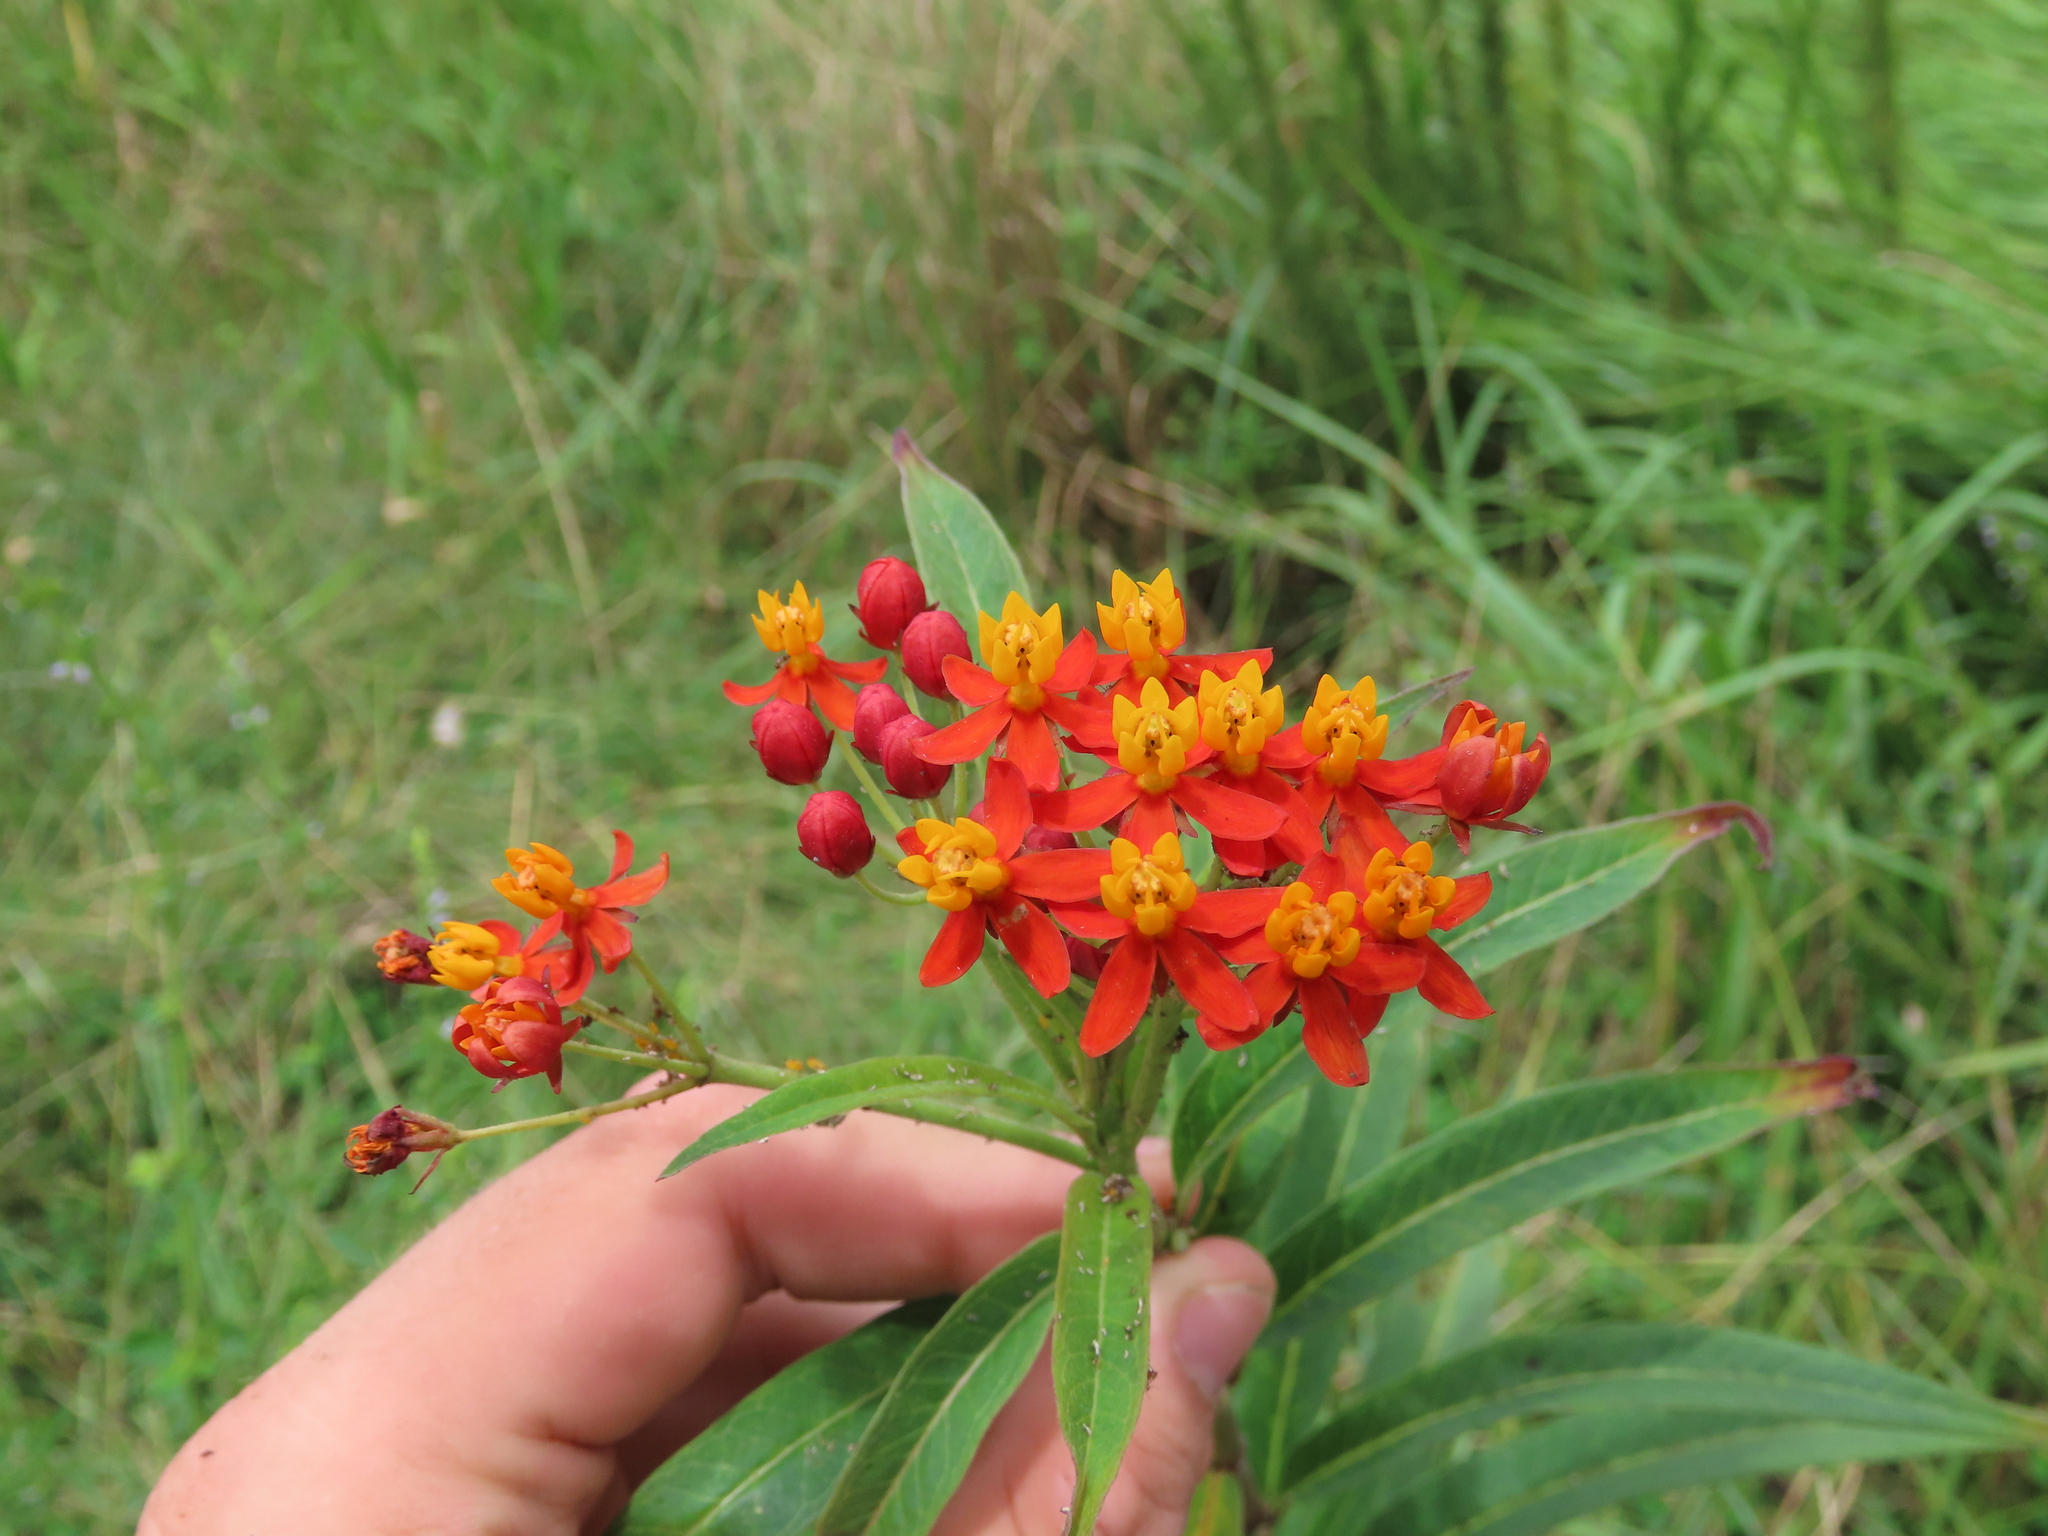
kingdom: Plantae
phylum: Tracheophyta
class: Magnoliopsida
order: Gentianales
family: Apocynaceae
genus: Asclepias
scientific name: Asclepias curassavica
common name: Bloodflower
